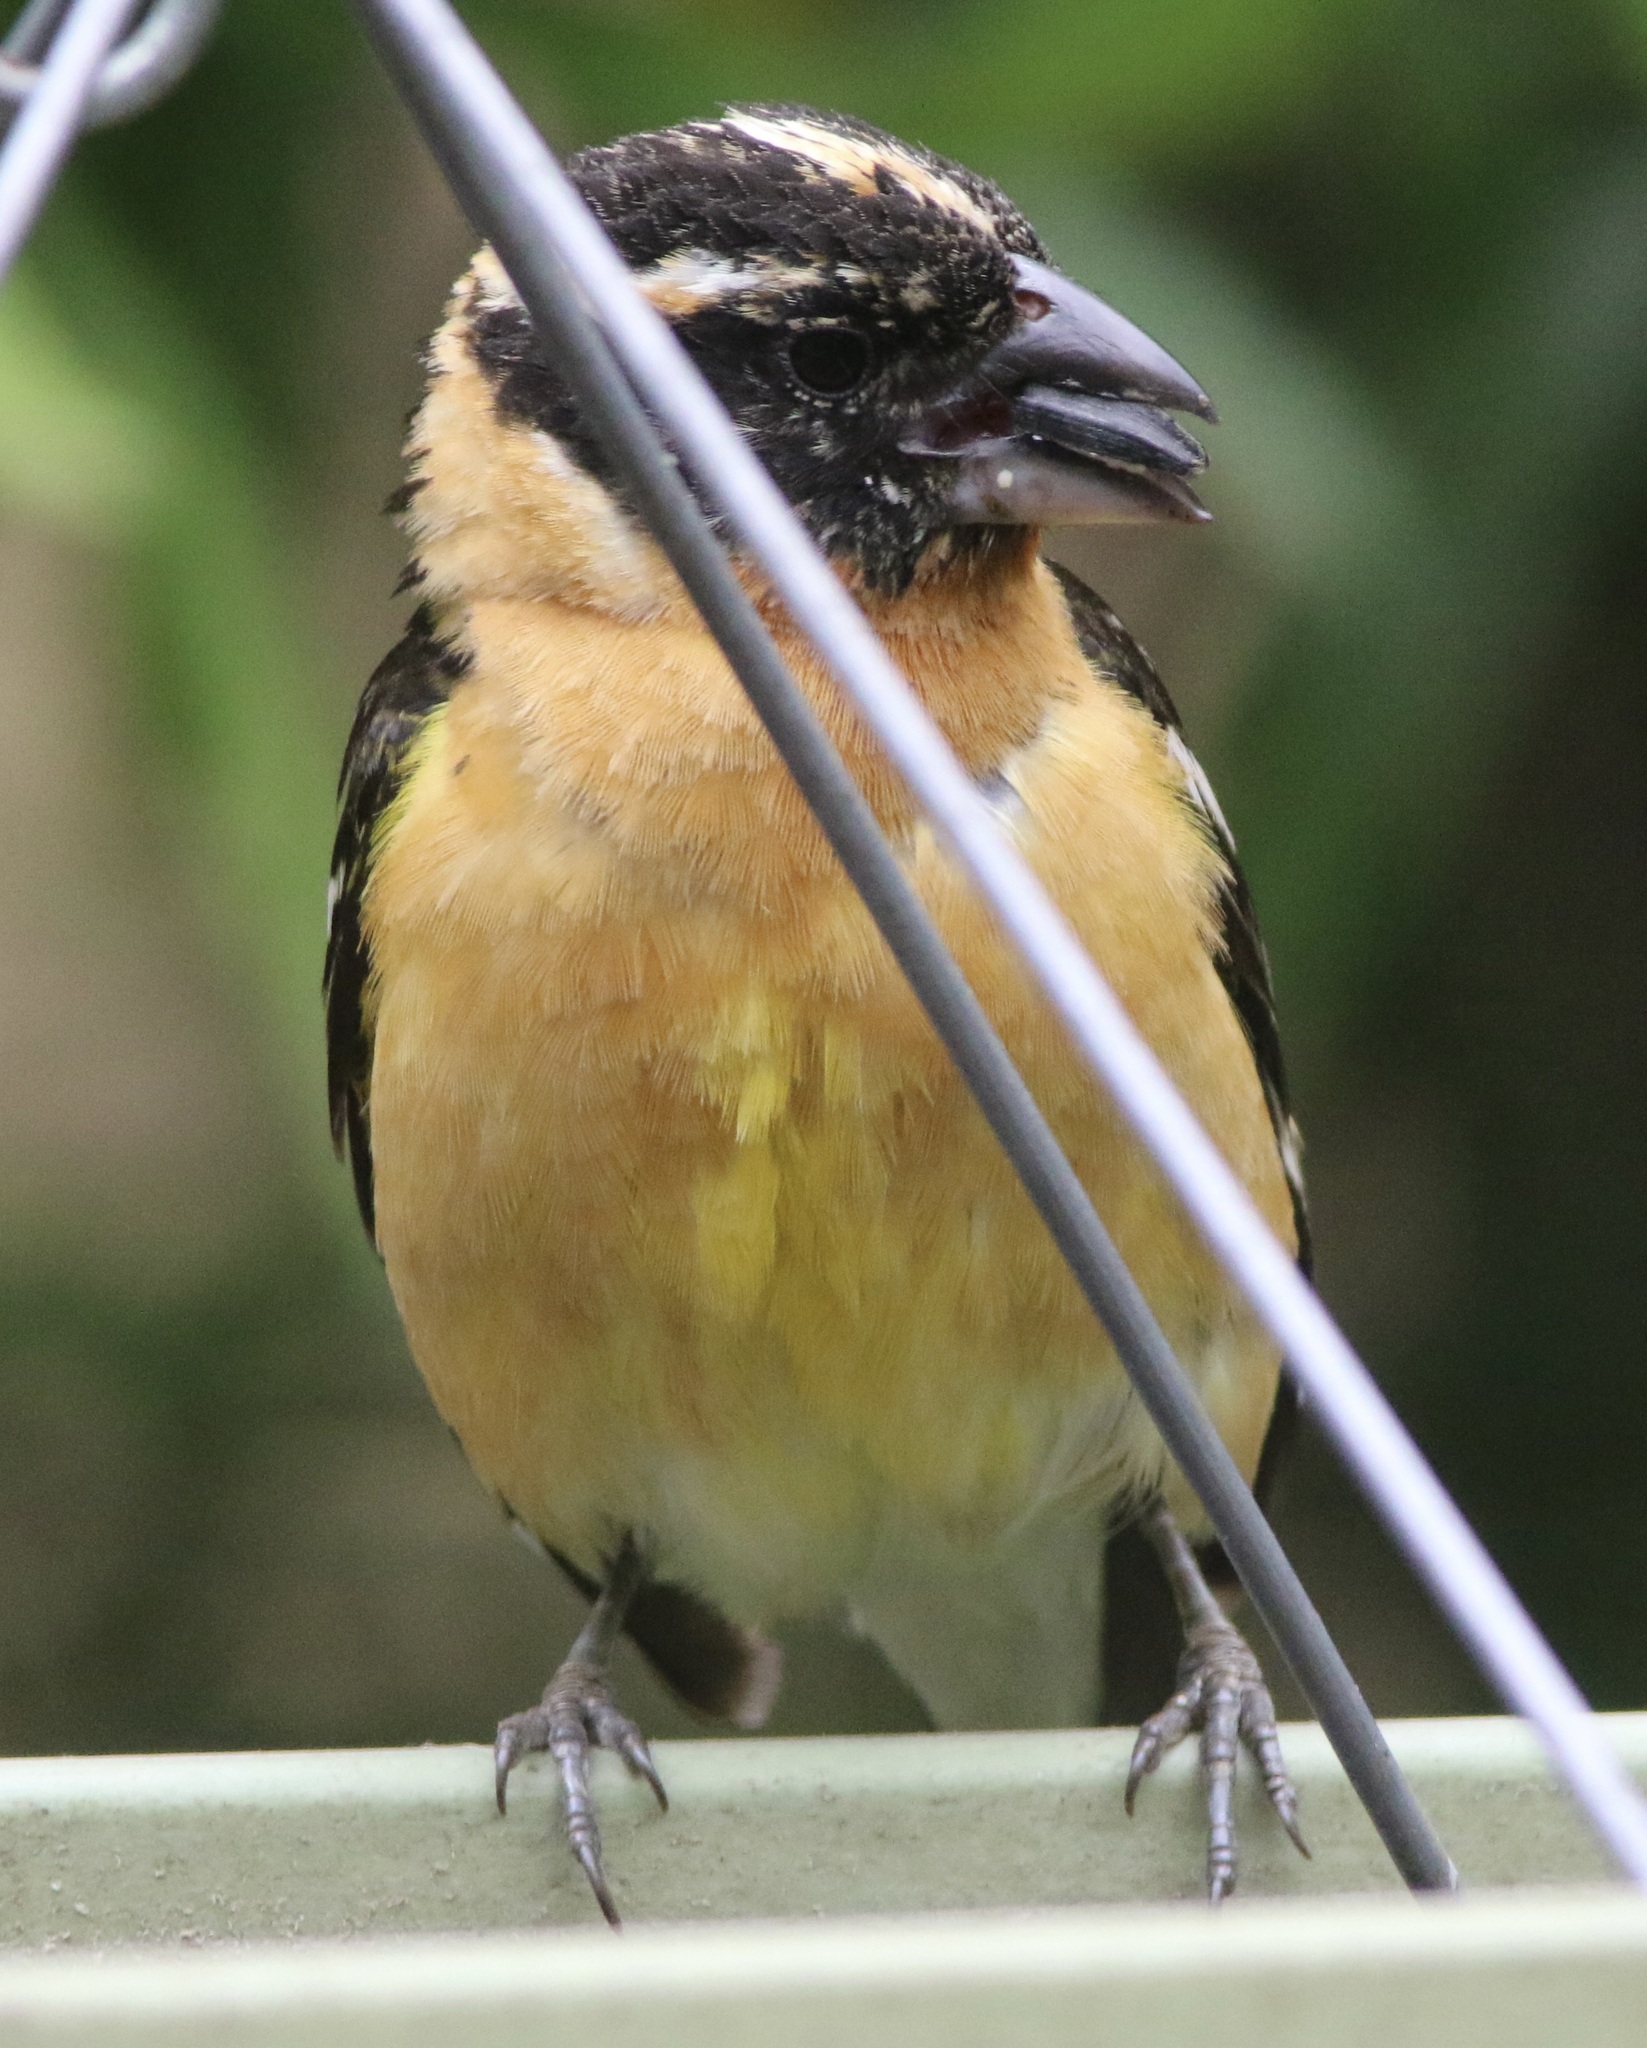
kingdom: Animalia
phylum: Chordata
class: Aves
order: Passeriformes
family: Cardinalidae
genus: Pheucticus
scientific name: Pheucticus melanocephalus
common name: Black-headed grosbeak
